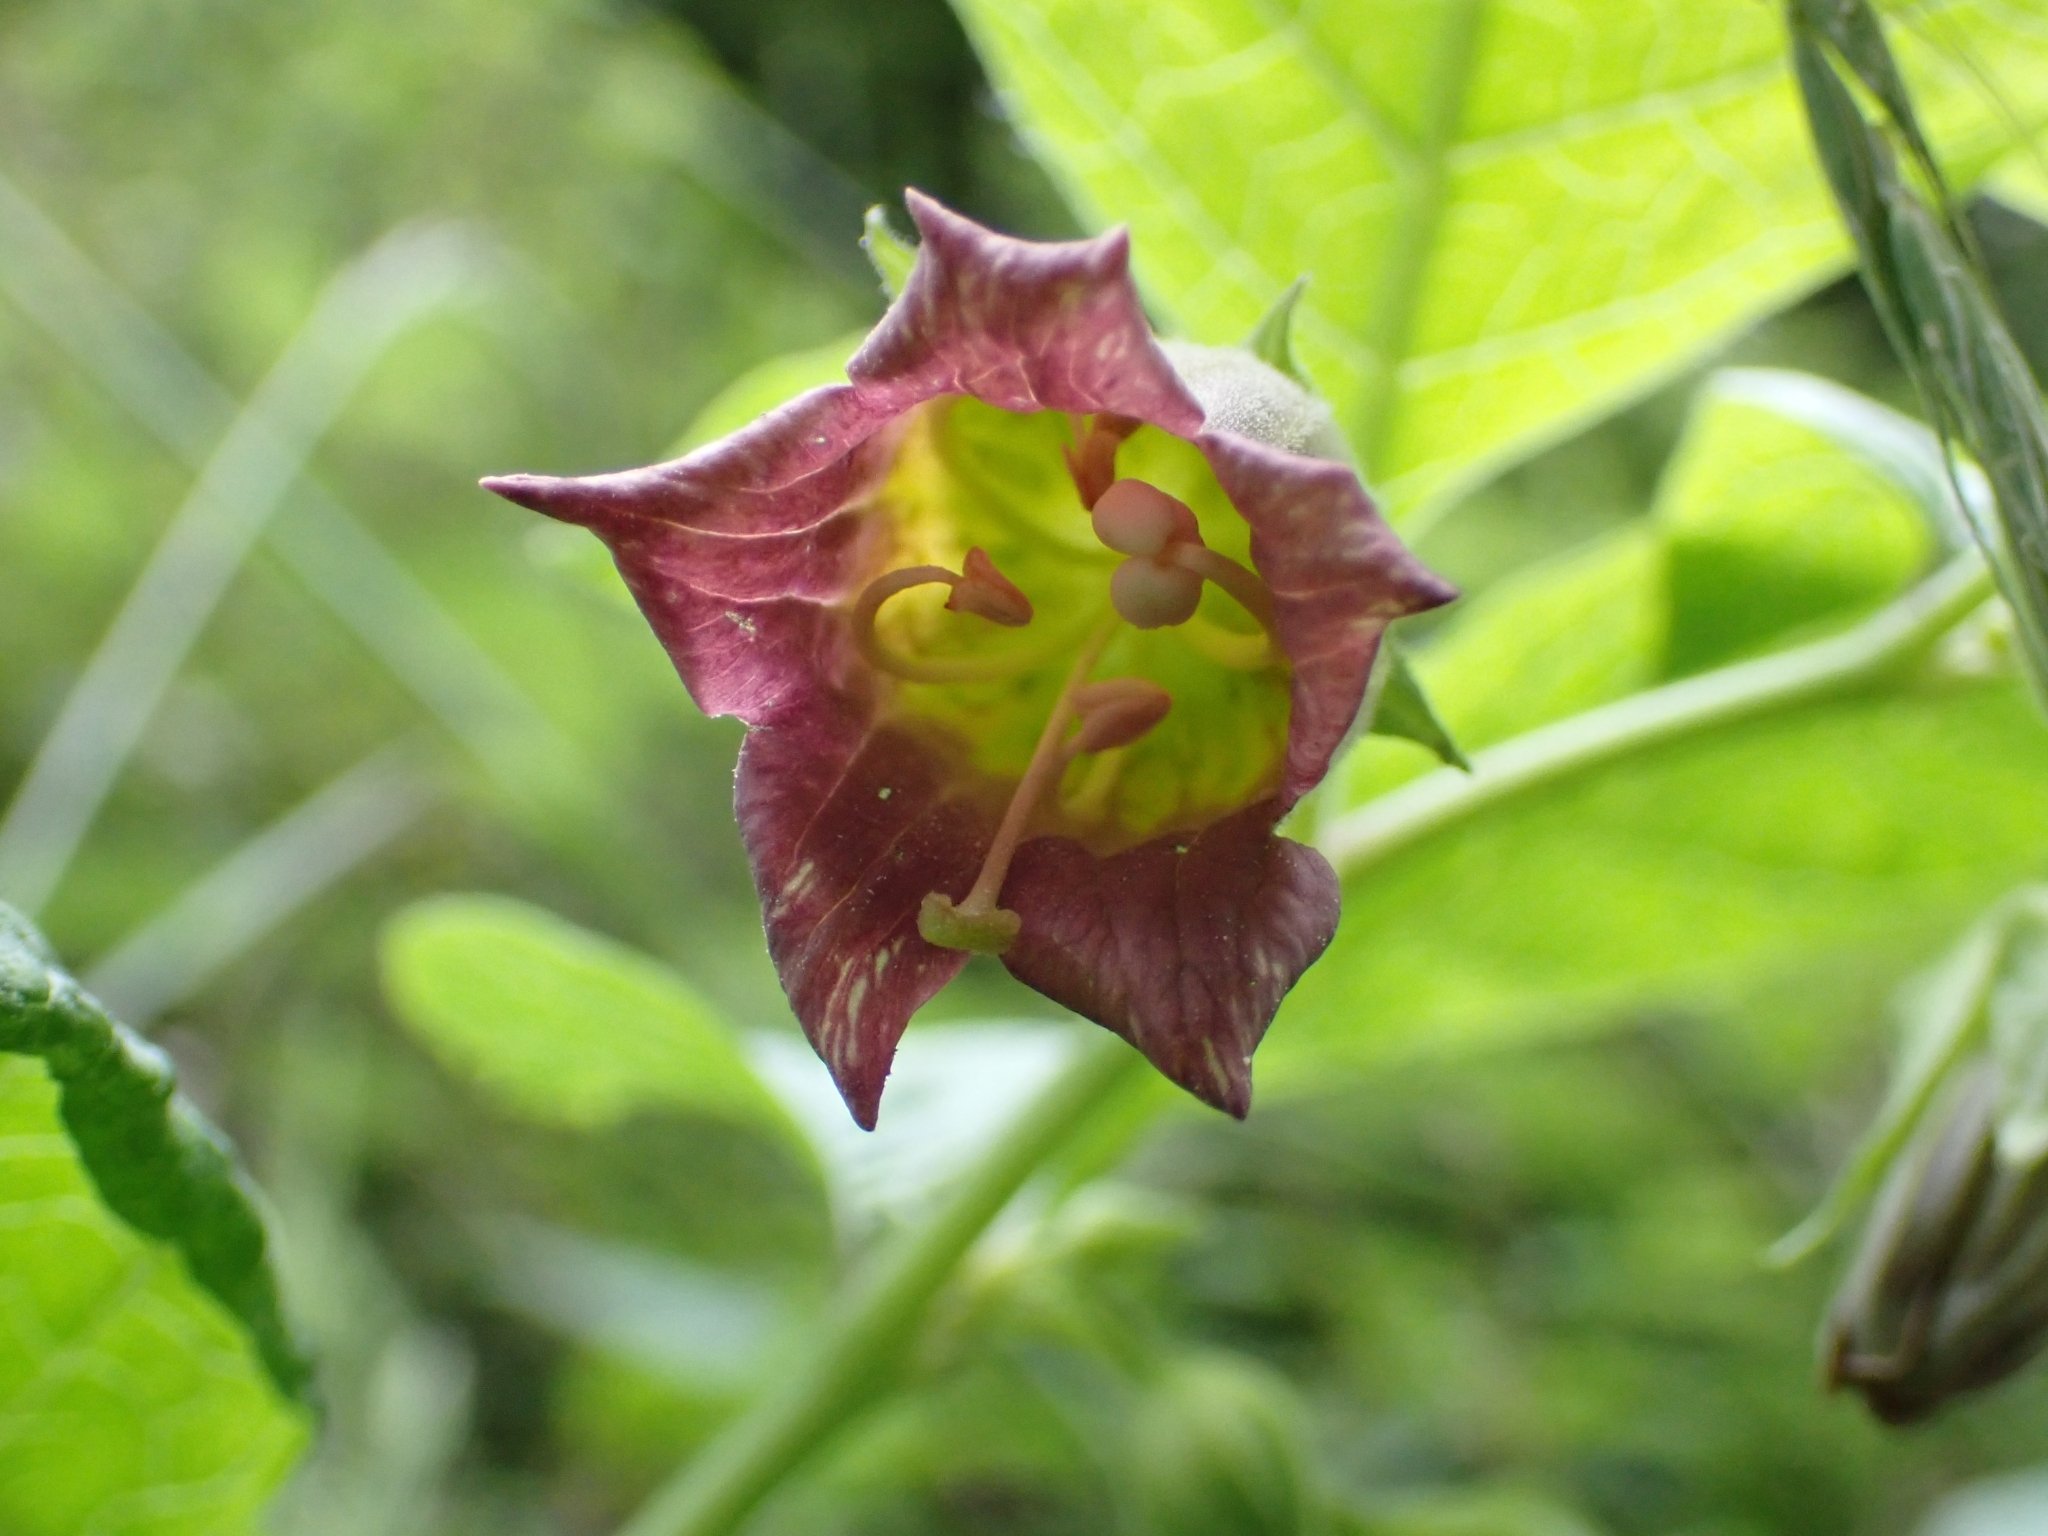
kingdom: Plantae
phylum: Tracheophyta
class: Magnoliopsida
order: Solanales
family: Solanaceae
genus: Atropa
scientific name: Atropa belladonna
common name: Deadly nightshade
